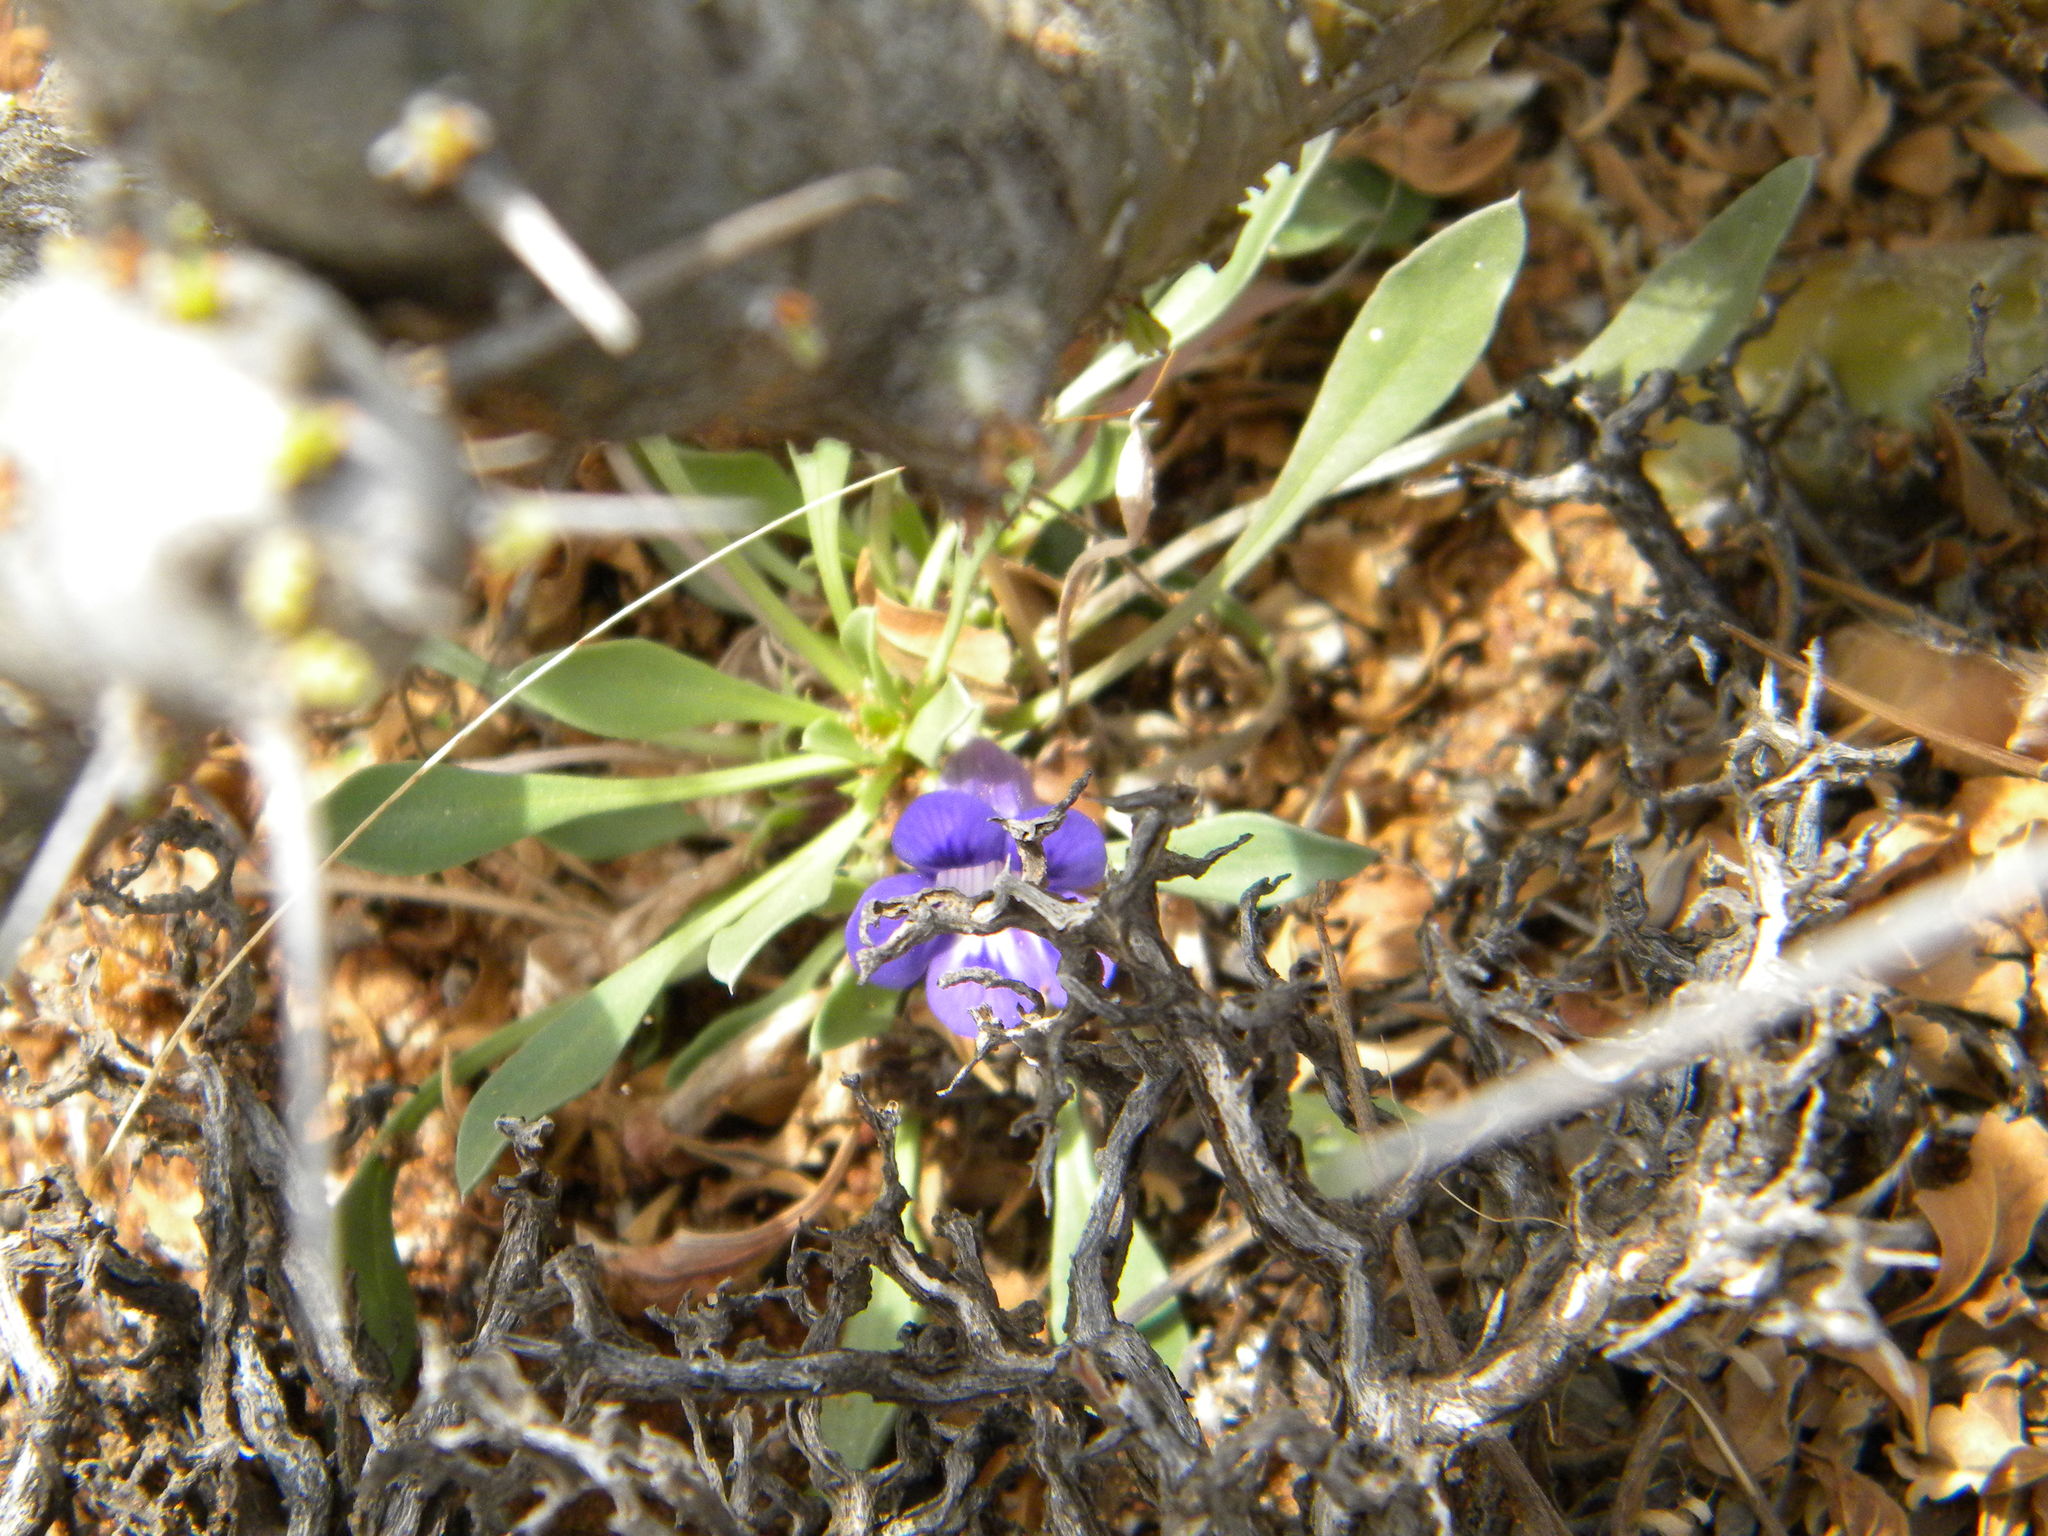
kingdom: Plantae
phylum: Tracheophyta
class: Magnoliopsida
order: Lamiales
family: Scrophulariaceae
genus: Aptosimum
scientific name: Aptosimum indivisum
